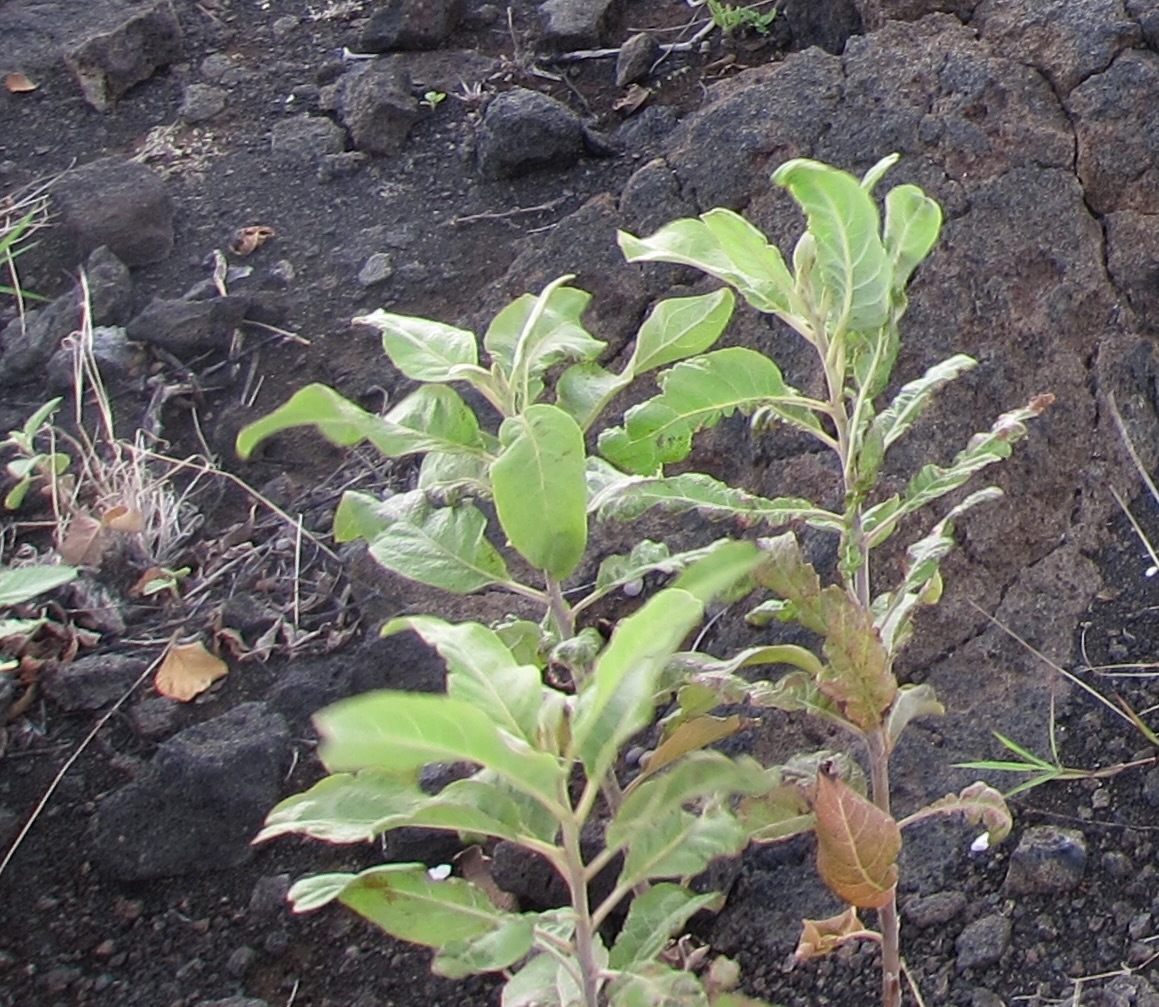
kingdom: Plantae
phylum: Tracheophyta
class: Magnoliopsida
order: Asterales
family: Asteraceae
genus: Pluchea
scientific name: Pluchea carolinensis
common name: Marsh fleabane
